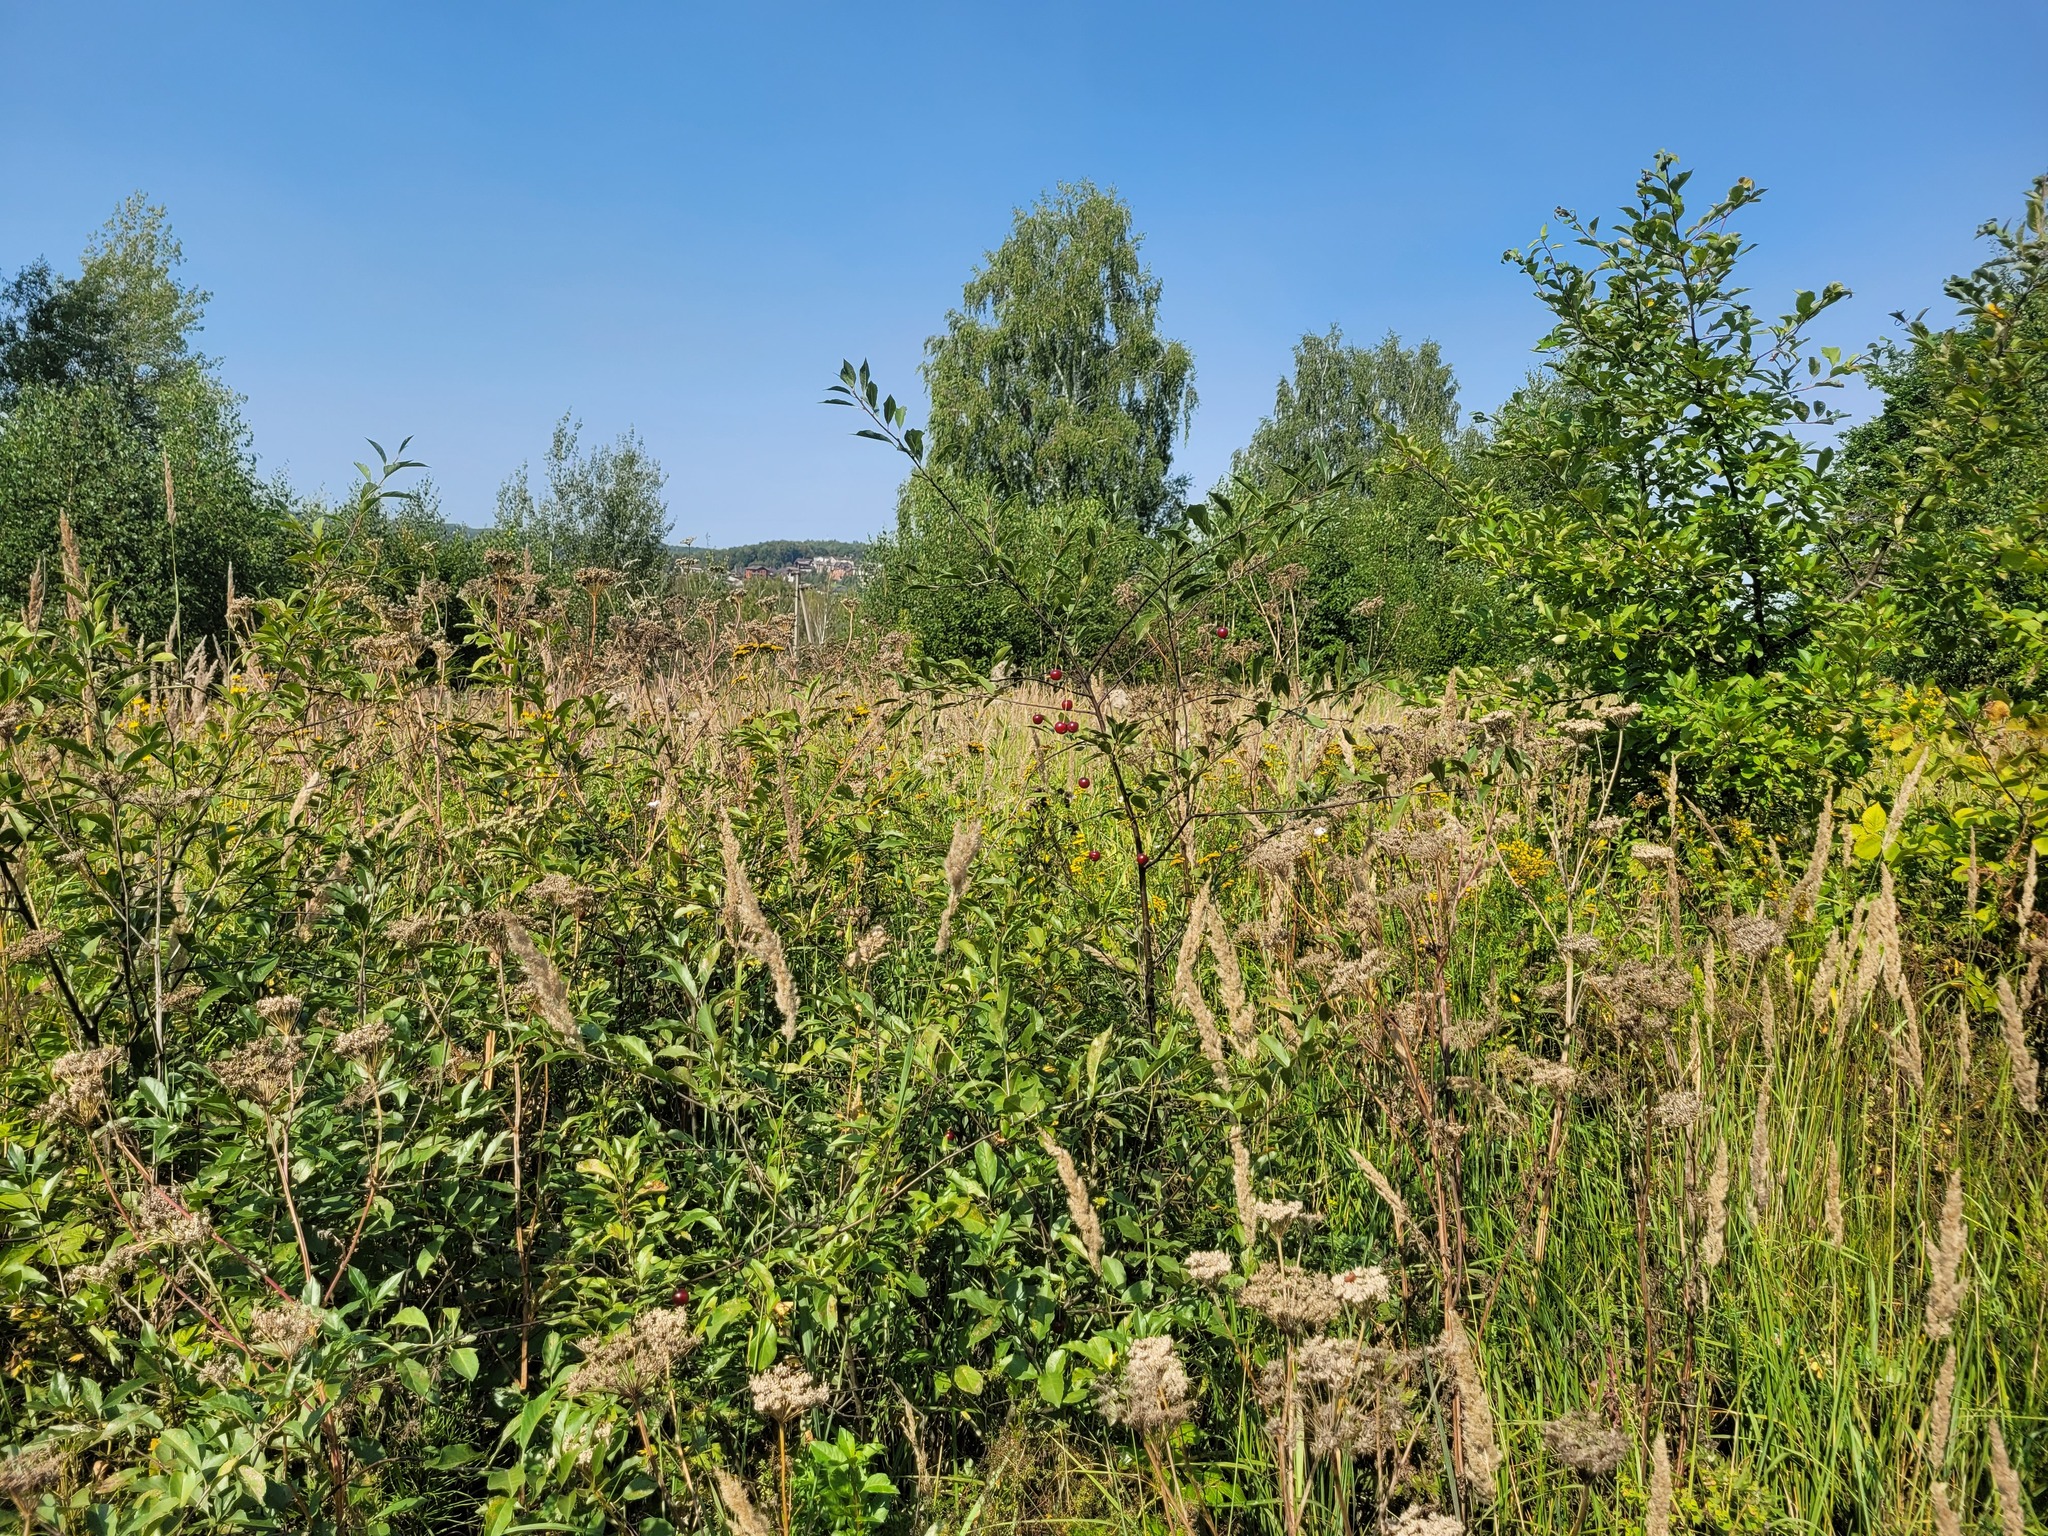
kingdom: Plantae
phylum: Tracheophyta
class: Magnoliopsida
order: Rosales
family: Rosaceae
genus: Prunus
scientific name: Prunus cerasus
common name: Morello cherry
